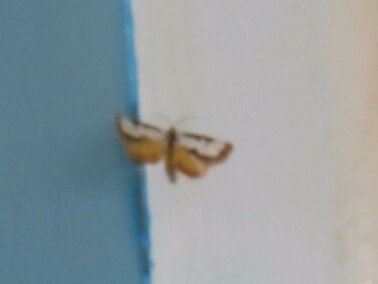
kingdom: Animalia
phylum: Arthropoda
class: Insecta
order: Lepidoptera
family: Noctuidae
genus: Eudryas
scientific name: Eudryas unio
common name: Pearly wood-nymph
